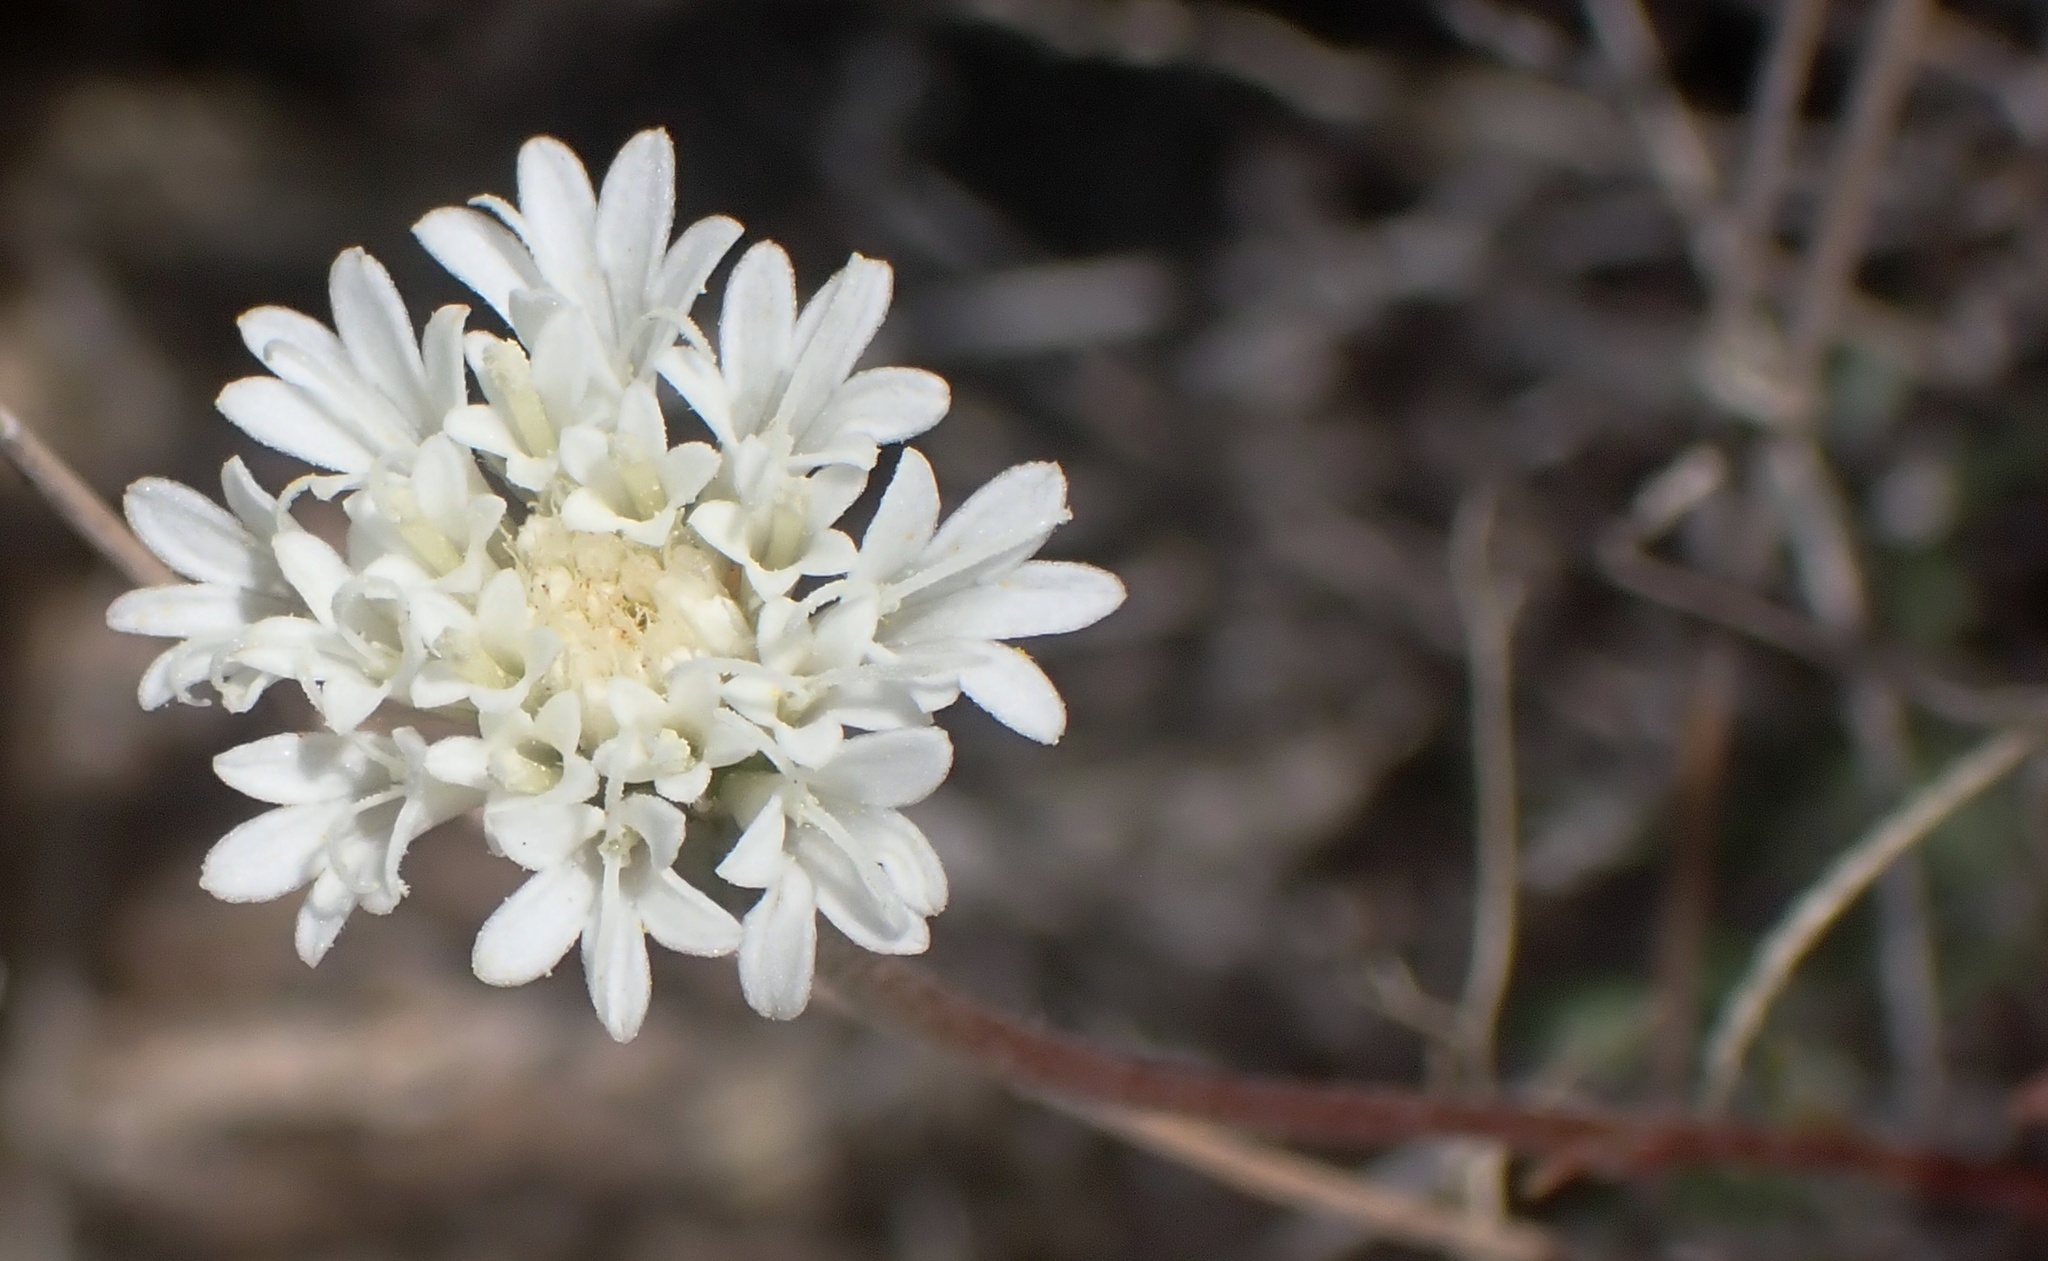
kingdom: Plantae
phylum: Tracheophyta
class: Magnoliopsida
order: Asterales
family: Asteraceae
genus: Chaenactis
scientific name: Chaenactis fremontii
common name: Fremont pincushion
